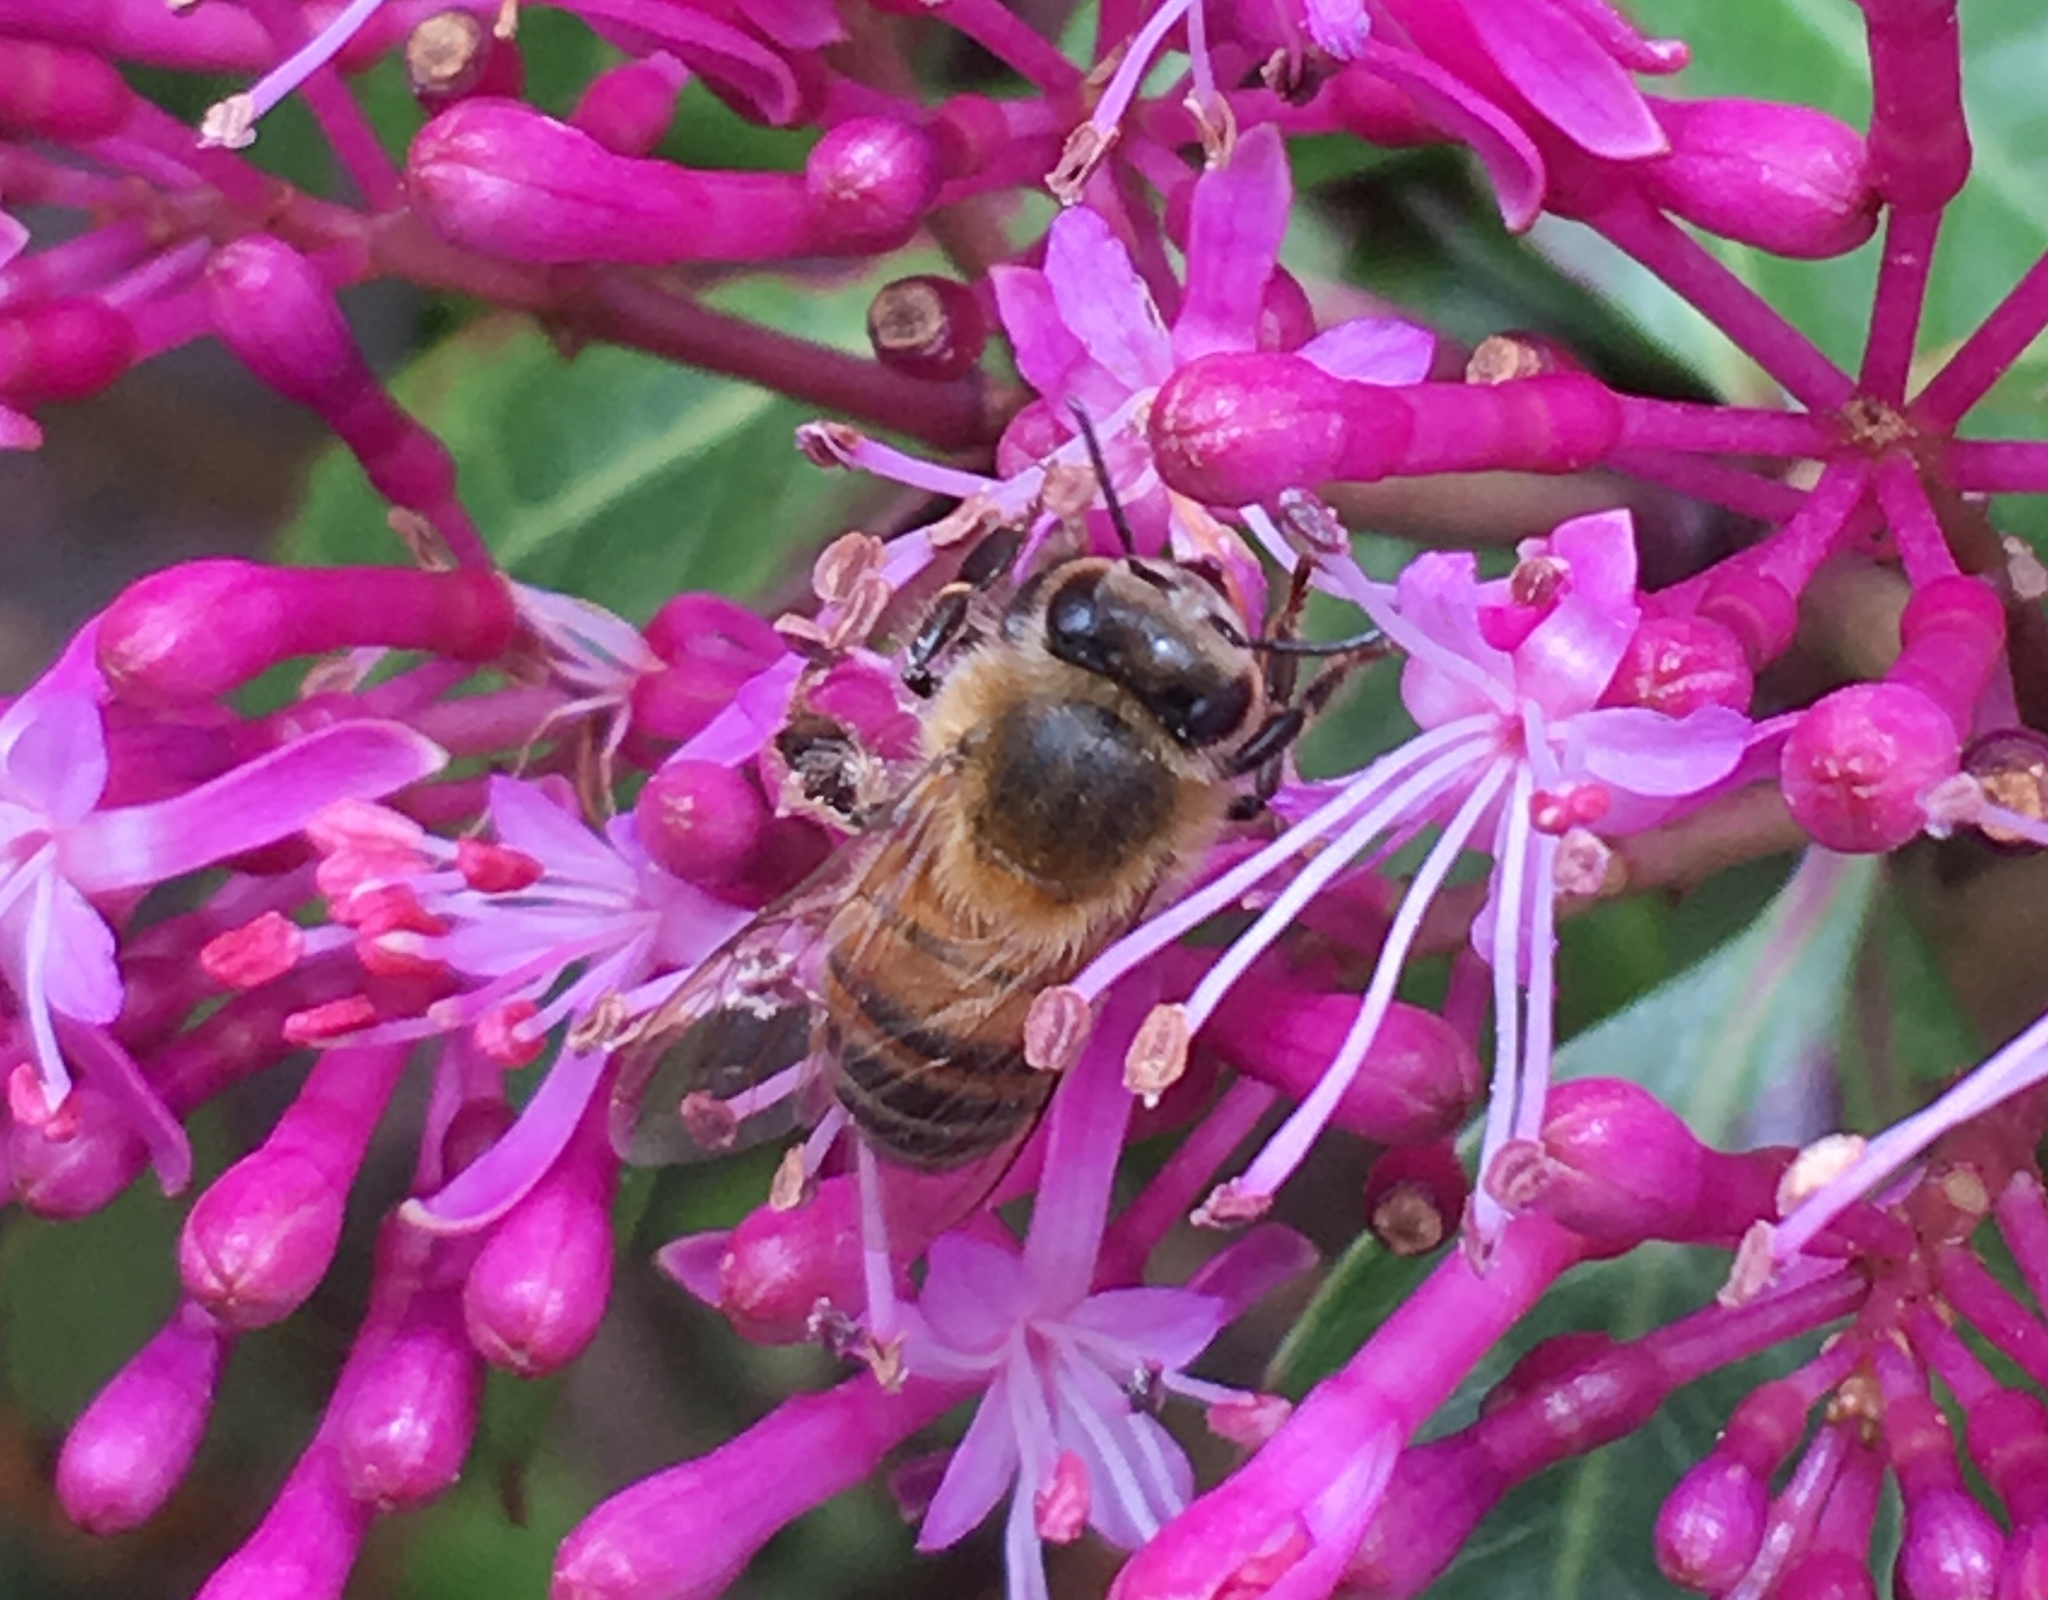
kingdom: Animalia
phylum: Arthropoda
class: Insecta
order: Hymenoptera
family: Apidae
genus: Apis
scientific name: Apis mellifera
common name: Honey bee
